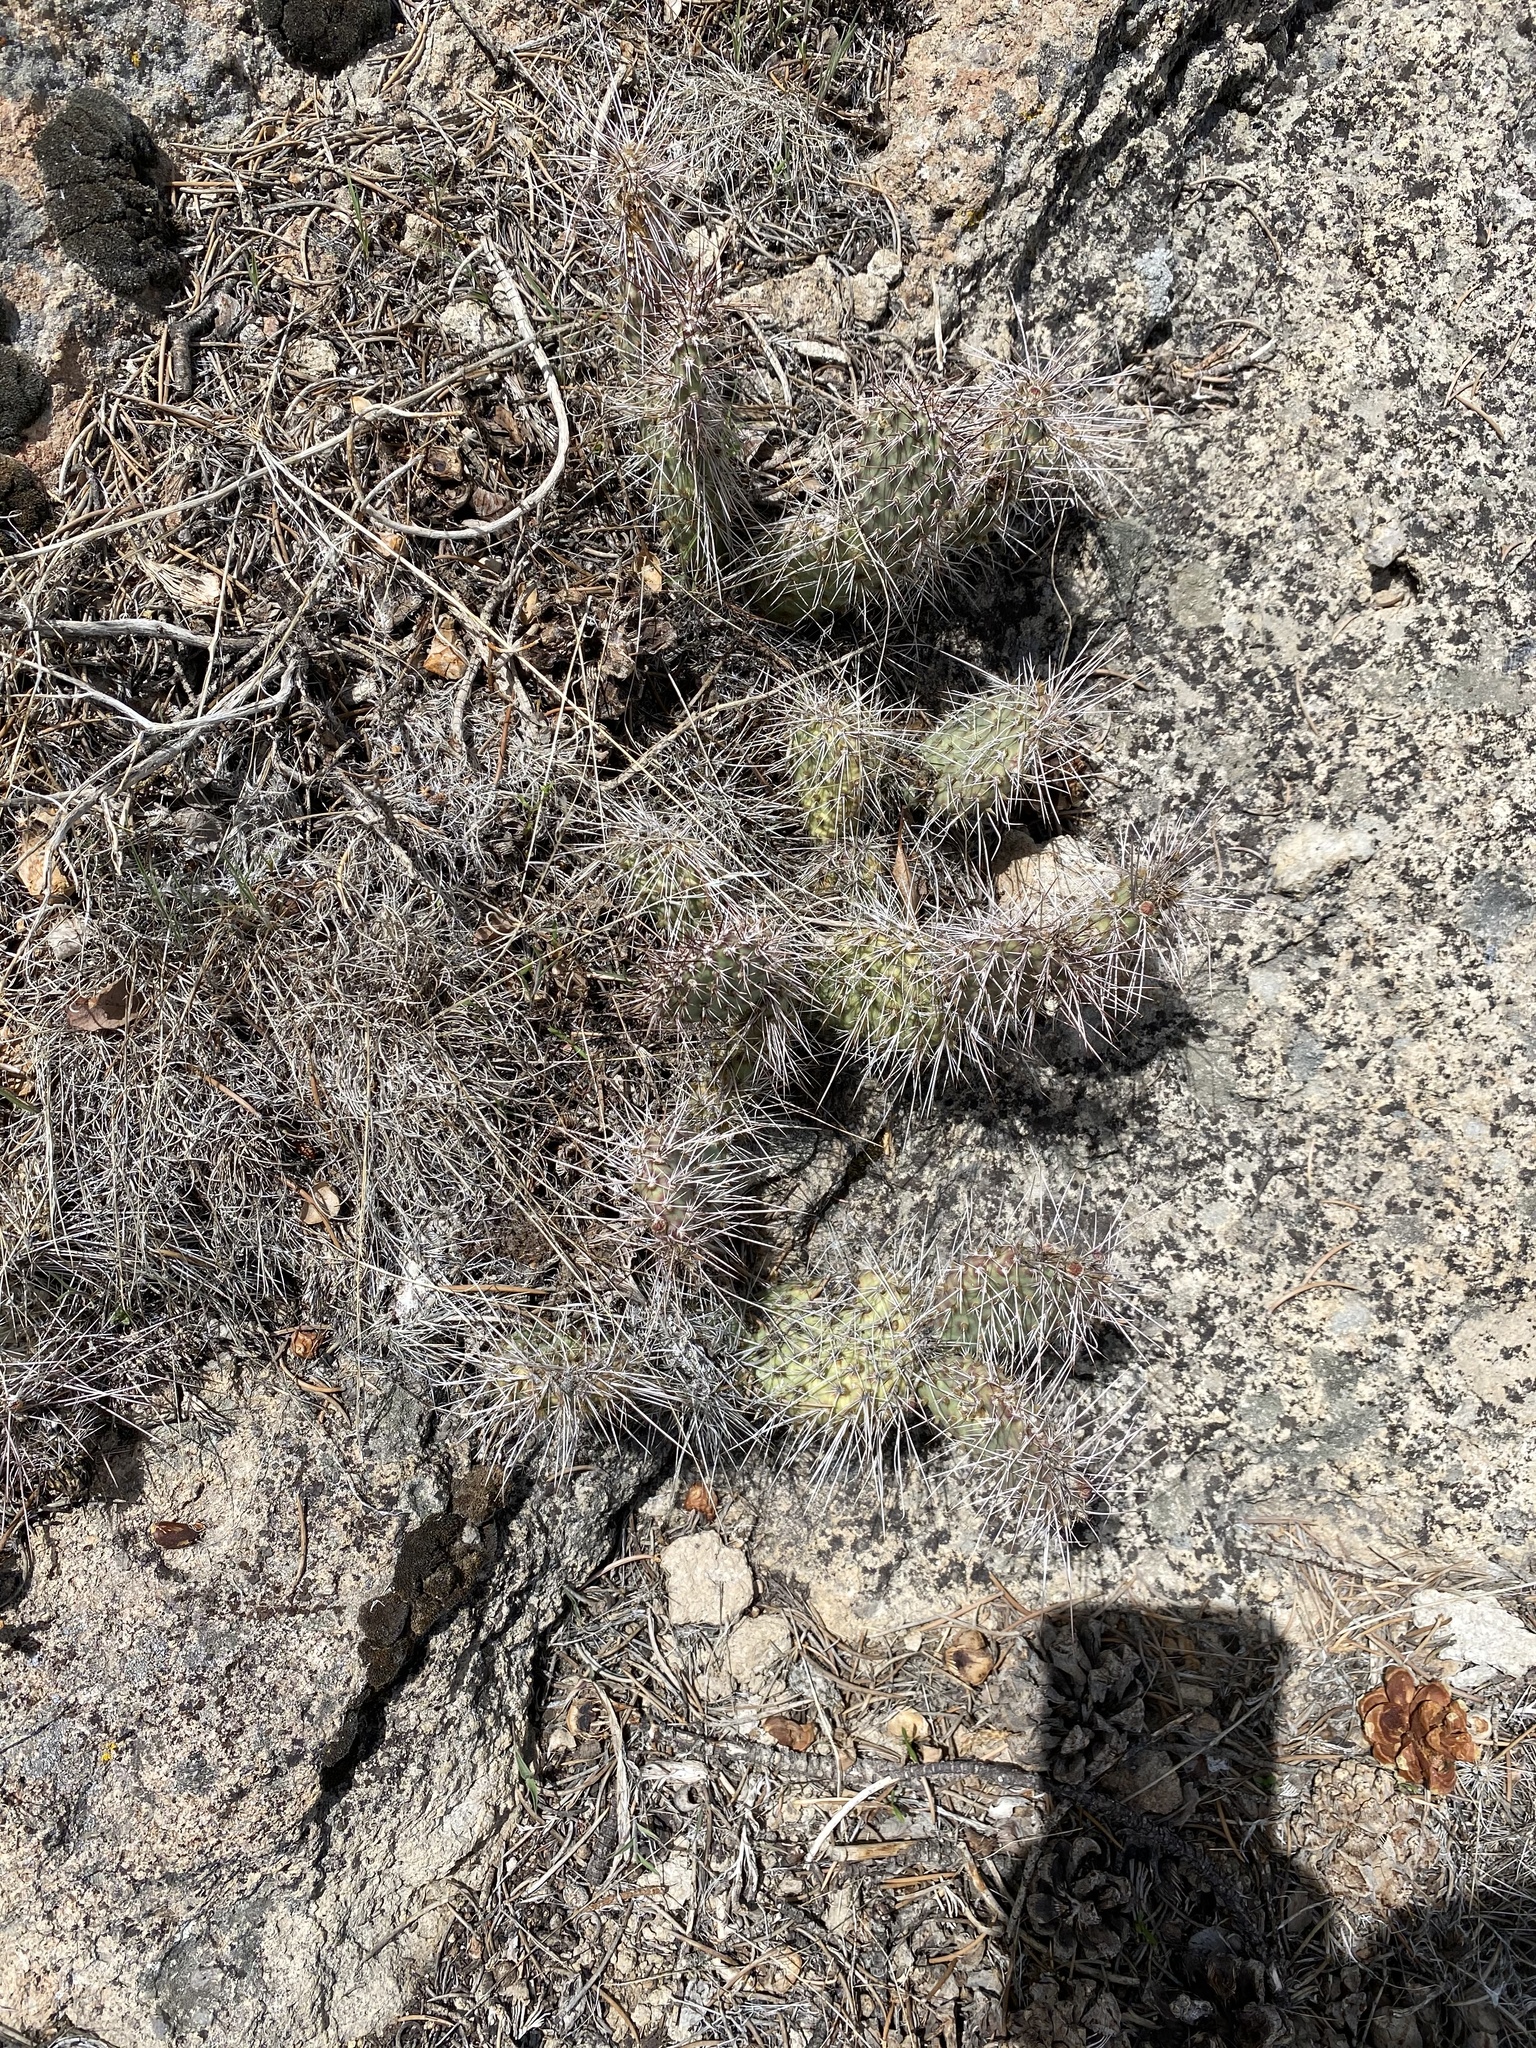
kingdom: Plantae
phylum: Tracheophyta
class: Magnoliopsida
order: Caryophyllales
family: Cactaceae
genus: Opuntia
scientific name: Opuntia polyacantha
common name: Plains prickly-pear
